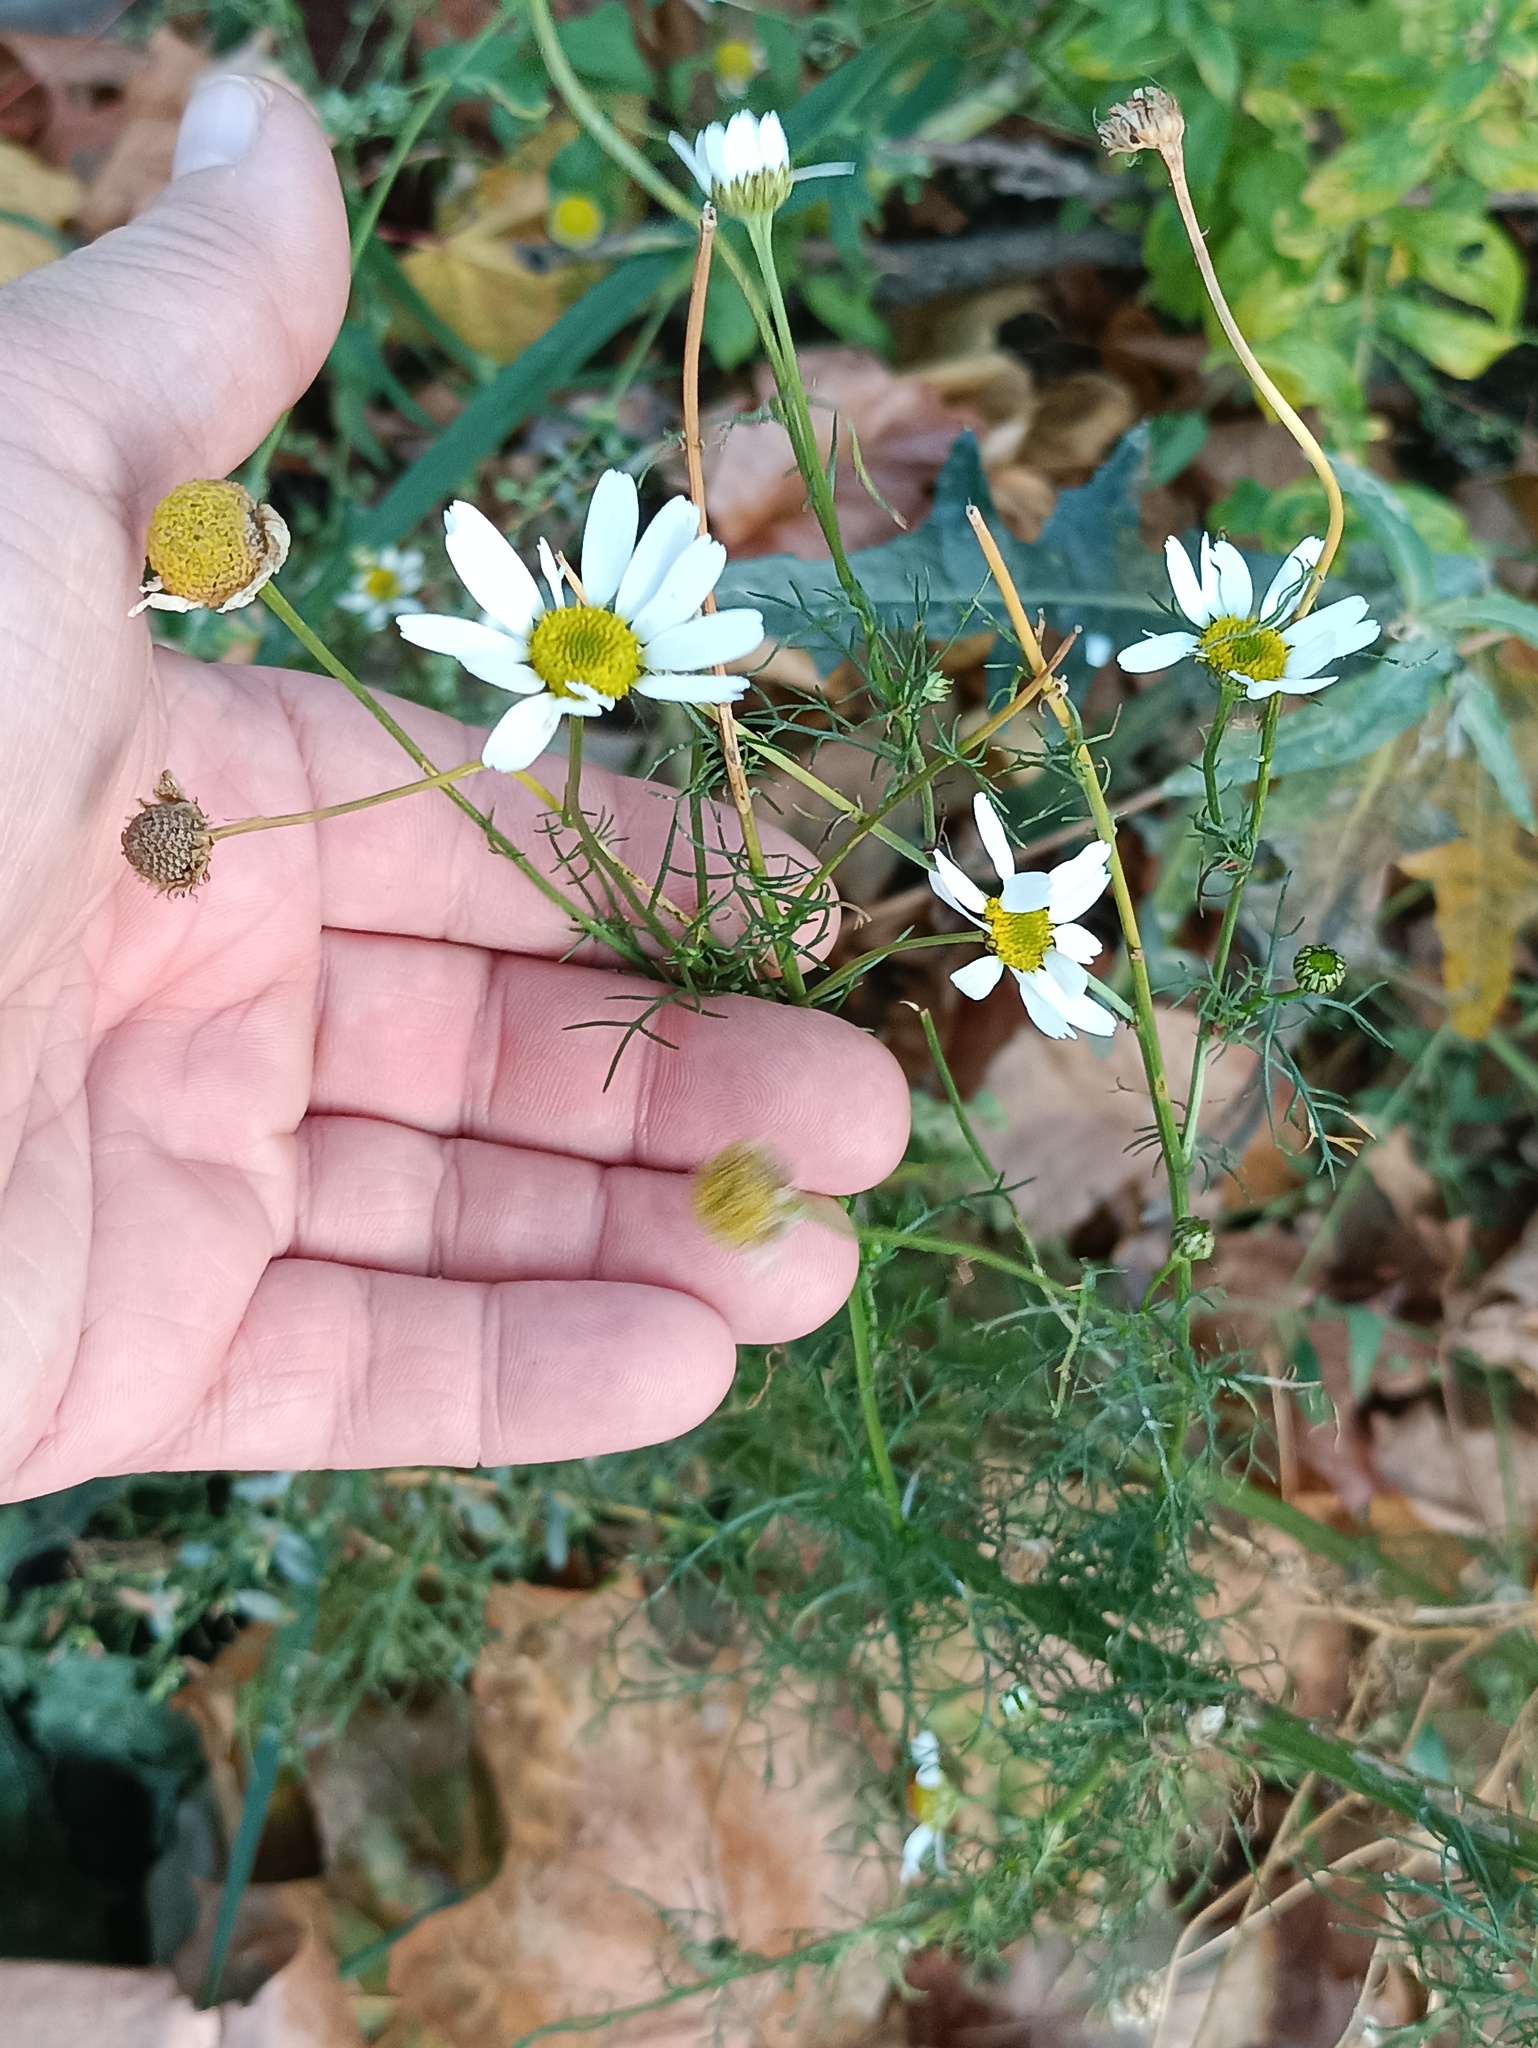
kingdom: Plantae
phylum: Tracheophyta
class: Magnoliopsida
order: Asterales
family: Asteraceae
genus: Tripleurospermum
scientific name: Tripleurospermum inodorum
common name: Scentless mayweed
